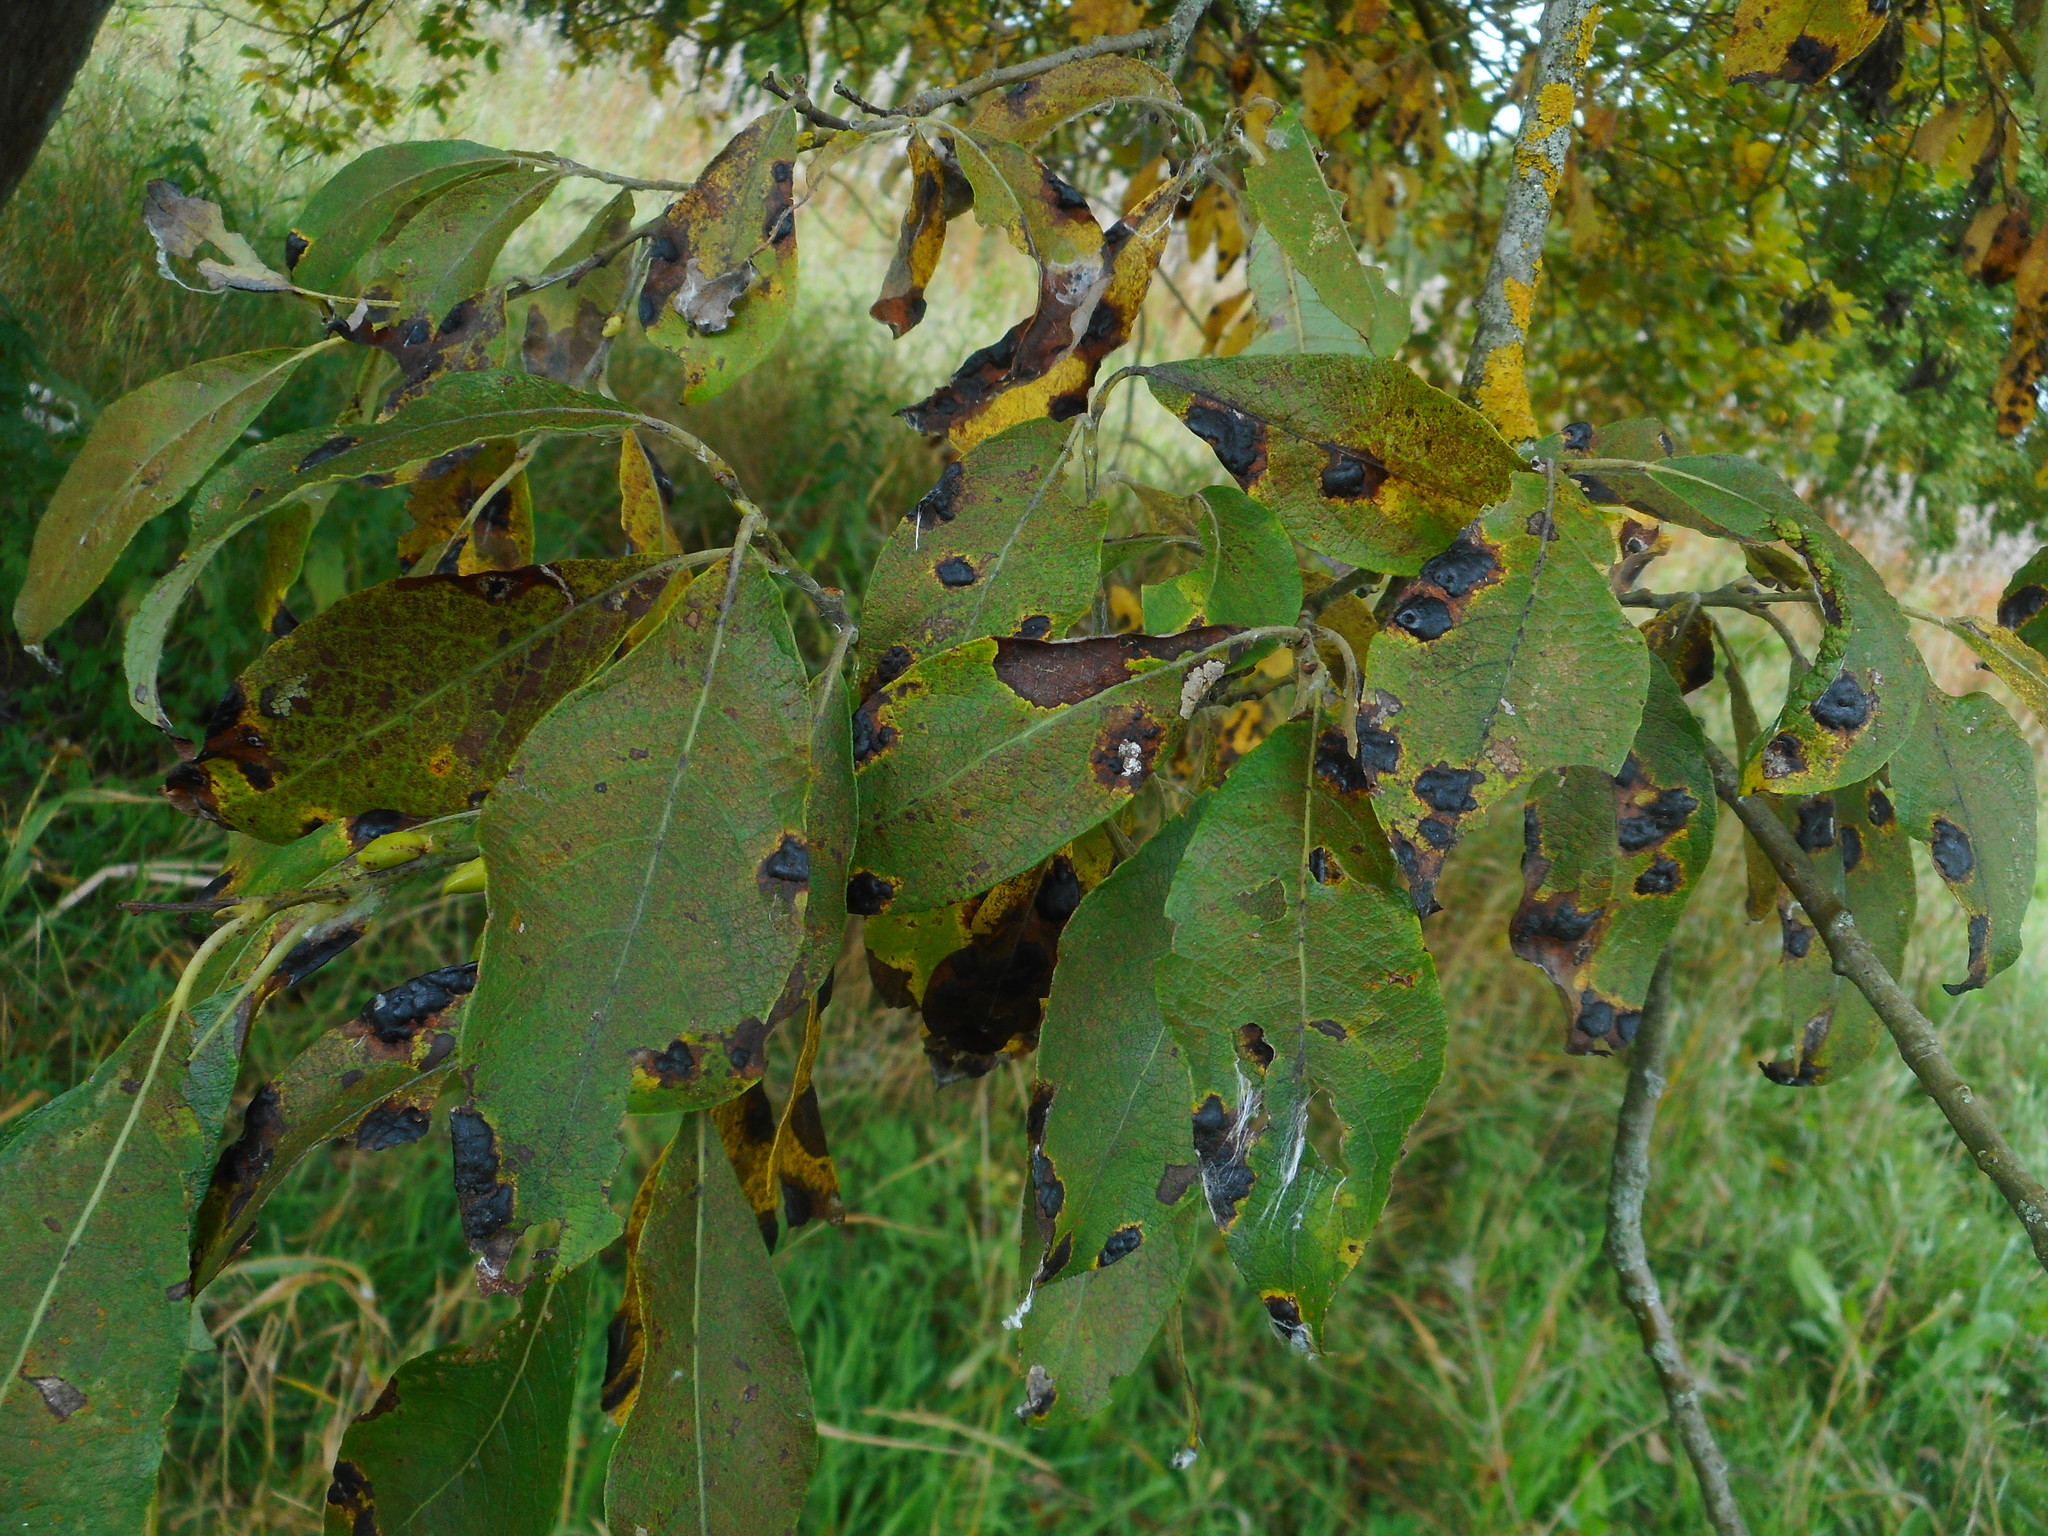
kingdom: Fungi
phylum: Ascomycota
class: Leotiomycetes
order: Rhytismatales
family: Rhytismataceae
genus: Rhytisma
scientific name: Rhytisma salicinum
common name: Willow tarspot
